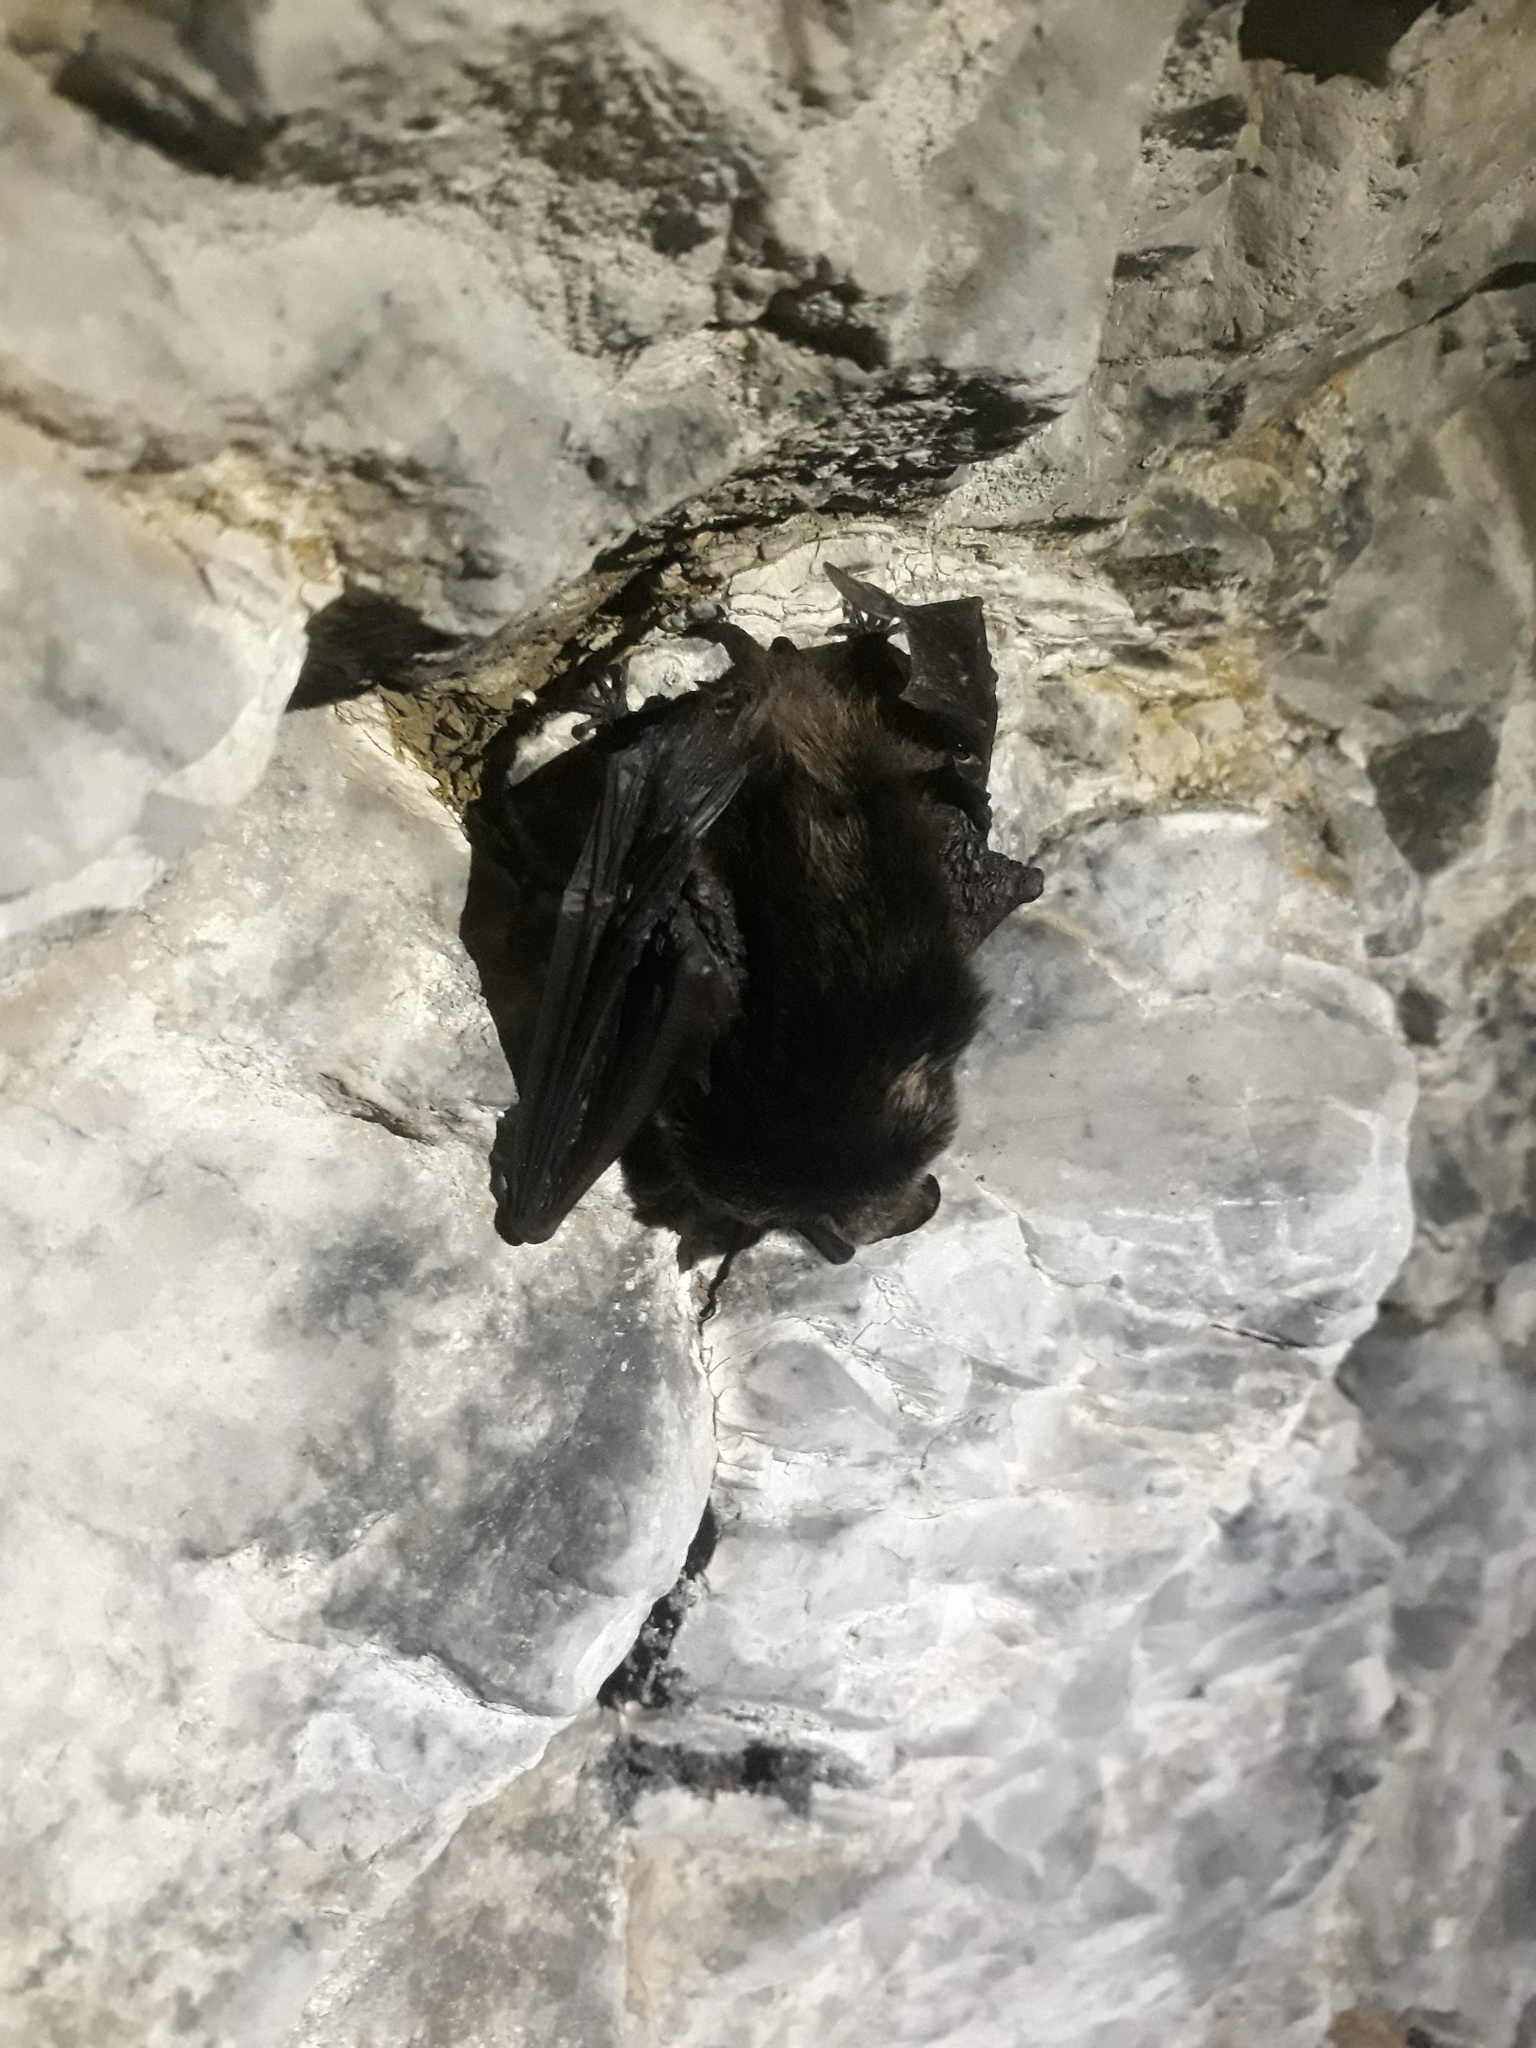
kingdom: Animalia
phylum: Chordata
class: Mammalia
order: Chiroptera
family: Vespertilionidae
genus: Barbastella
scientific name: Barbastella barbastellus
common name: Western barbastelle
